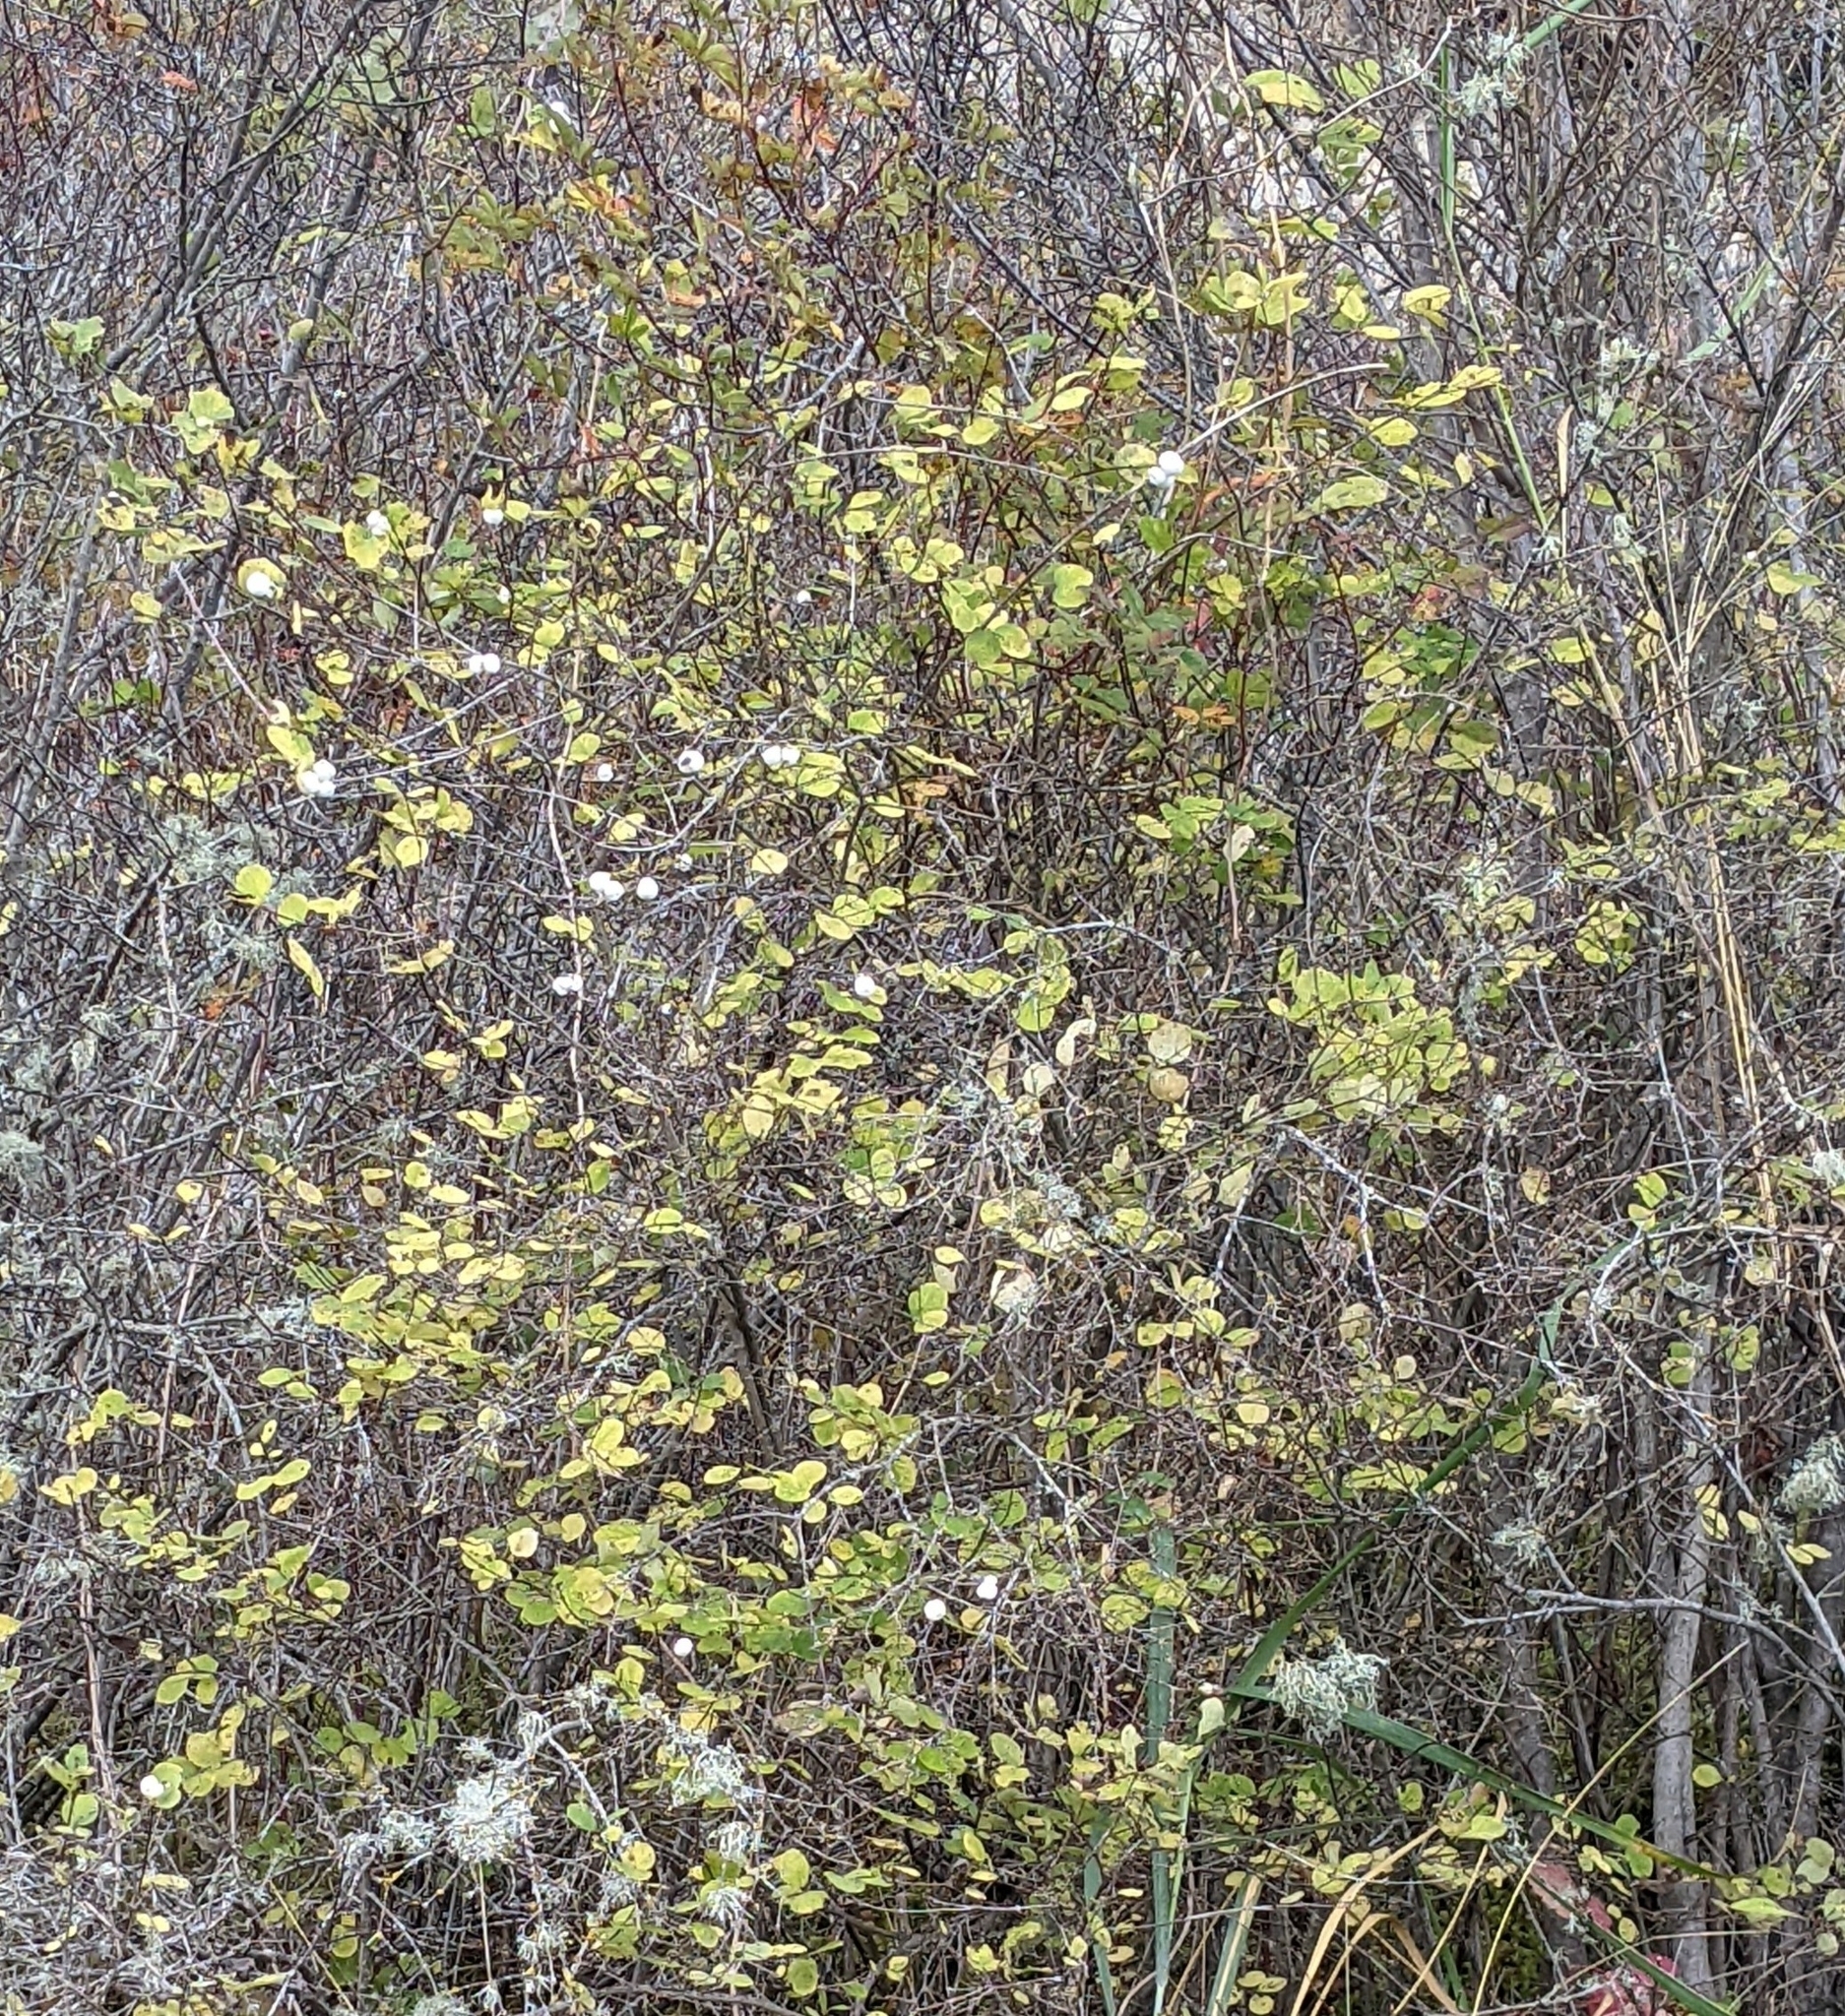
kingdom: Plantae
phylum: Tracheophyta
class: Magnoliopsida
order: Dipsacales
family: Caprifoliaceae
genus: Symphoricarpos
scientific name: Symphoricarpos albus
